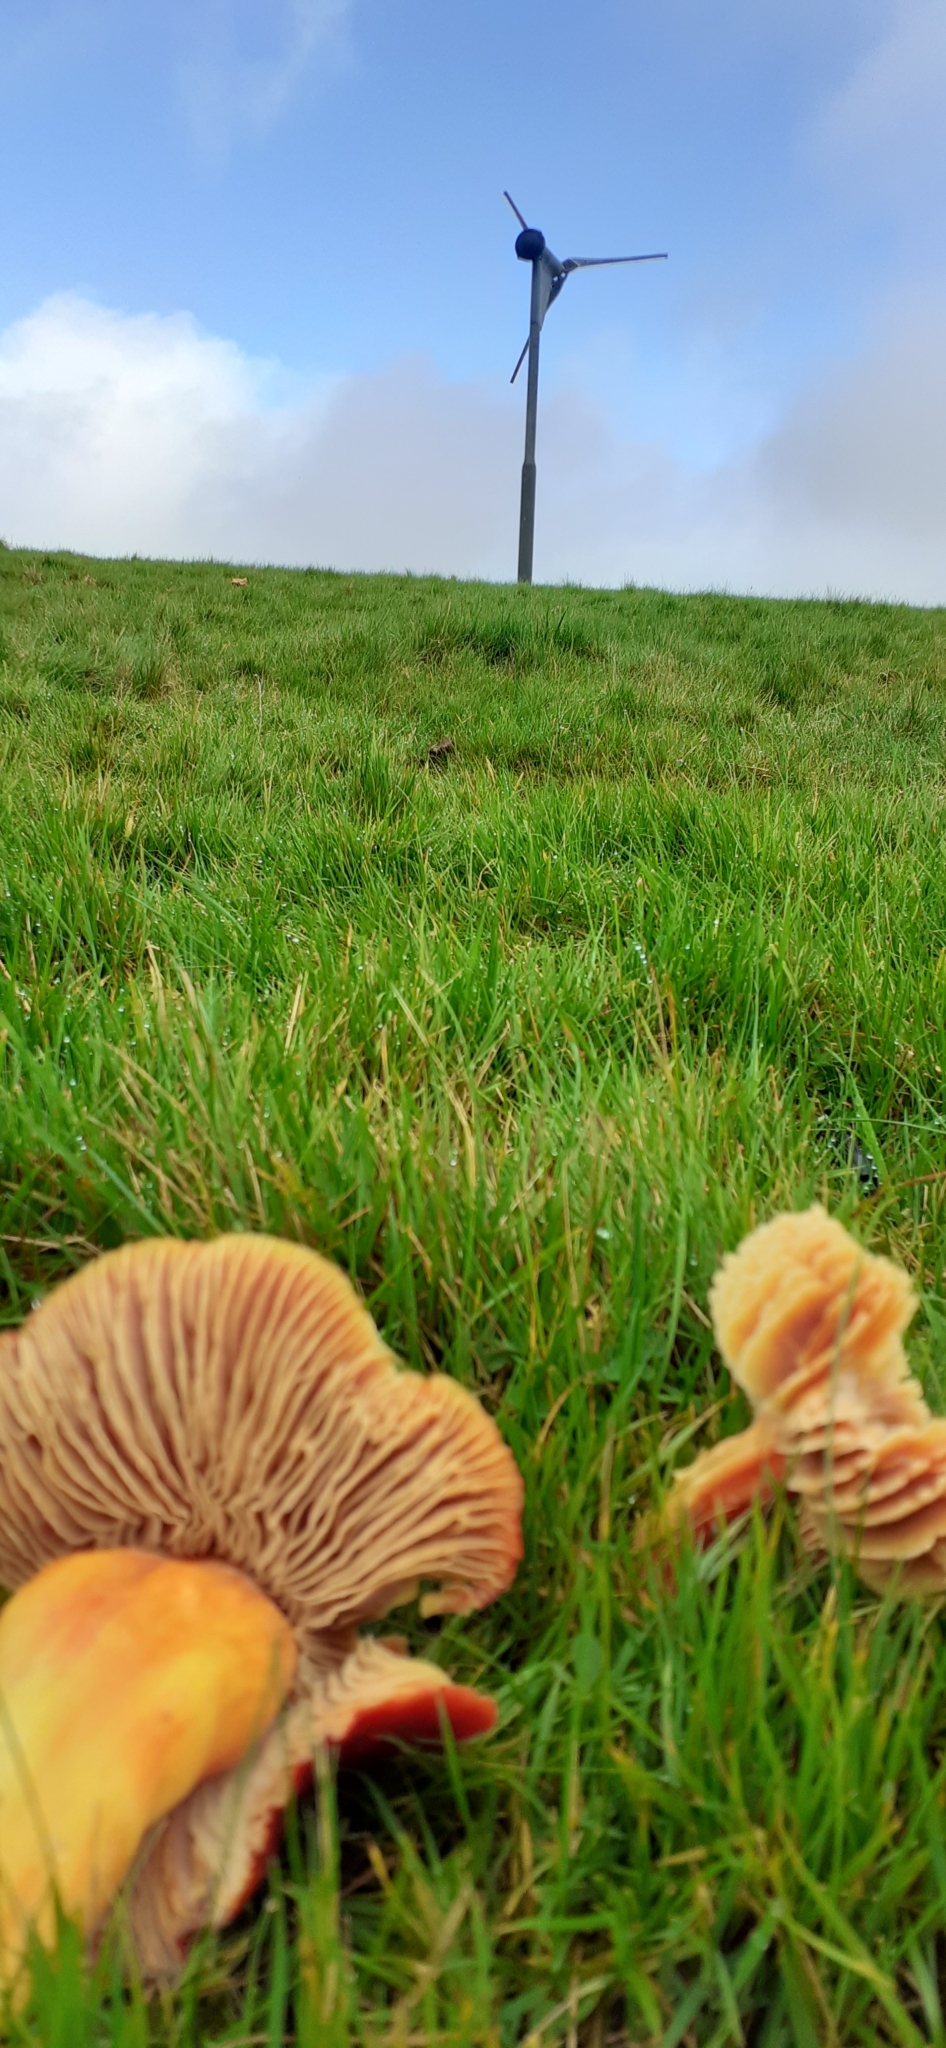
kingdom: Fungi
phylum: Basidiomycota
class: Agaricomycetes
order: Agaricales
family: Hygrophoraceae
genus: Hygrocybe
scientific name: Hygrocybe punicea
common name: Crimson waxcap
